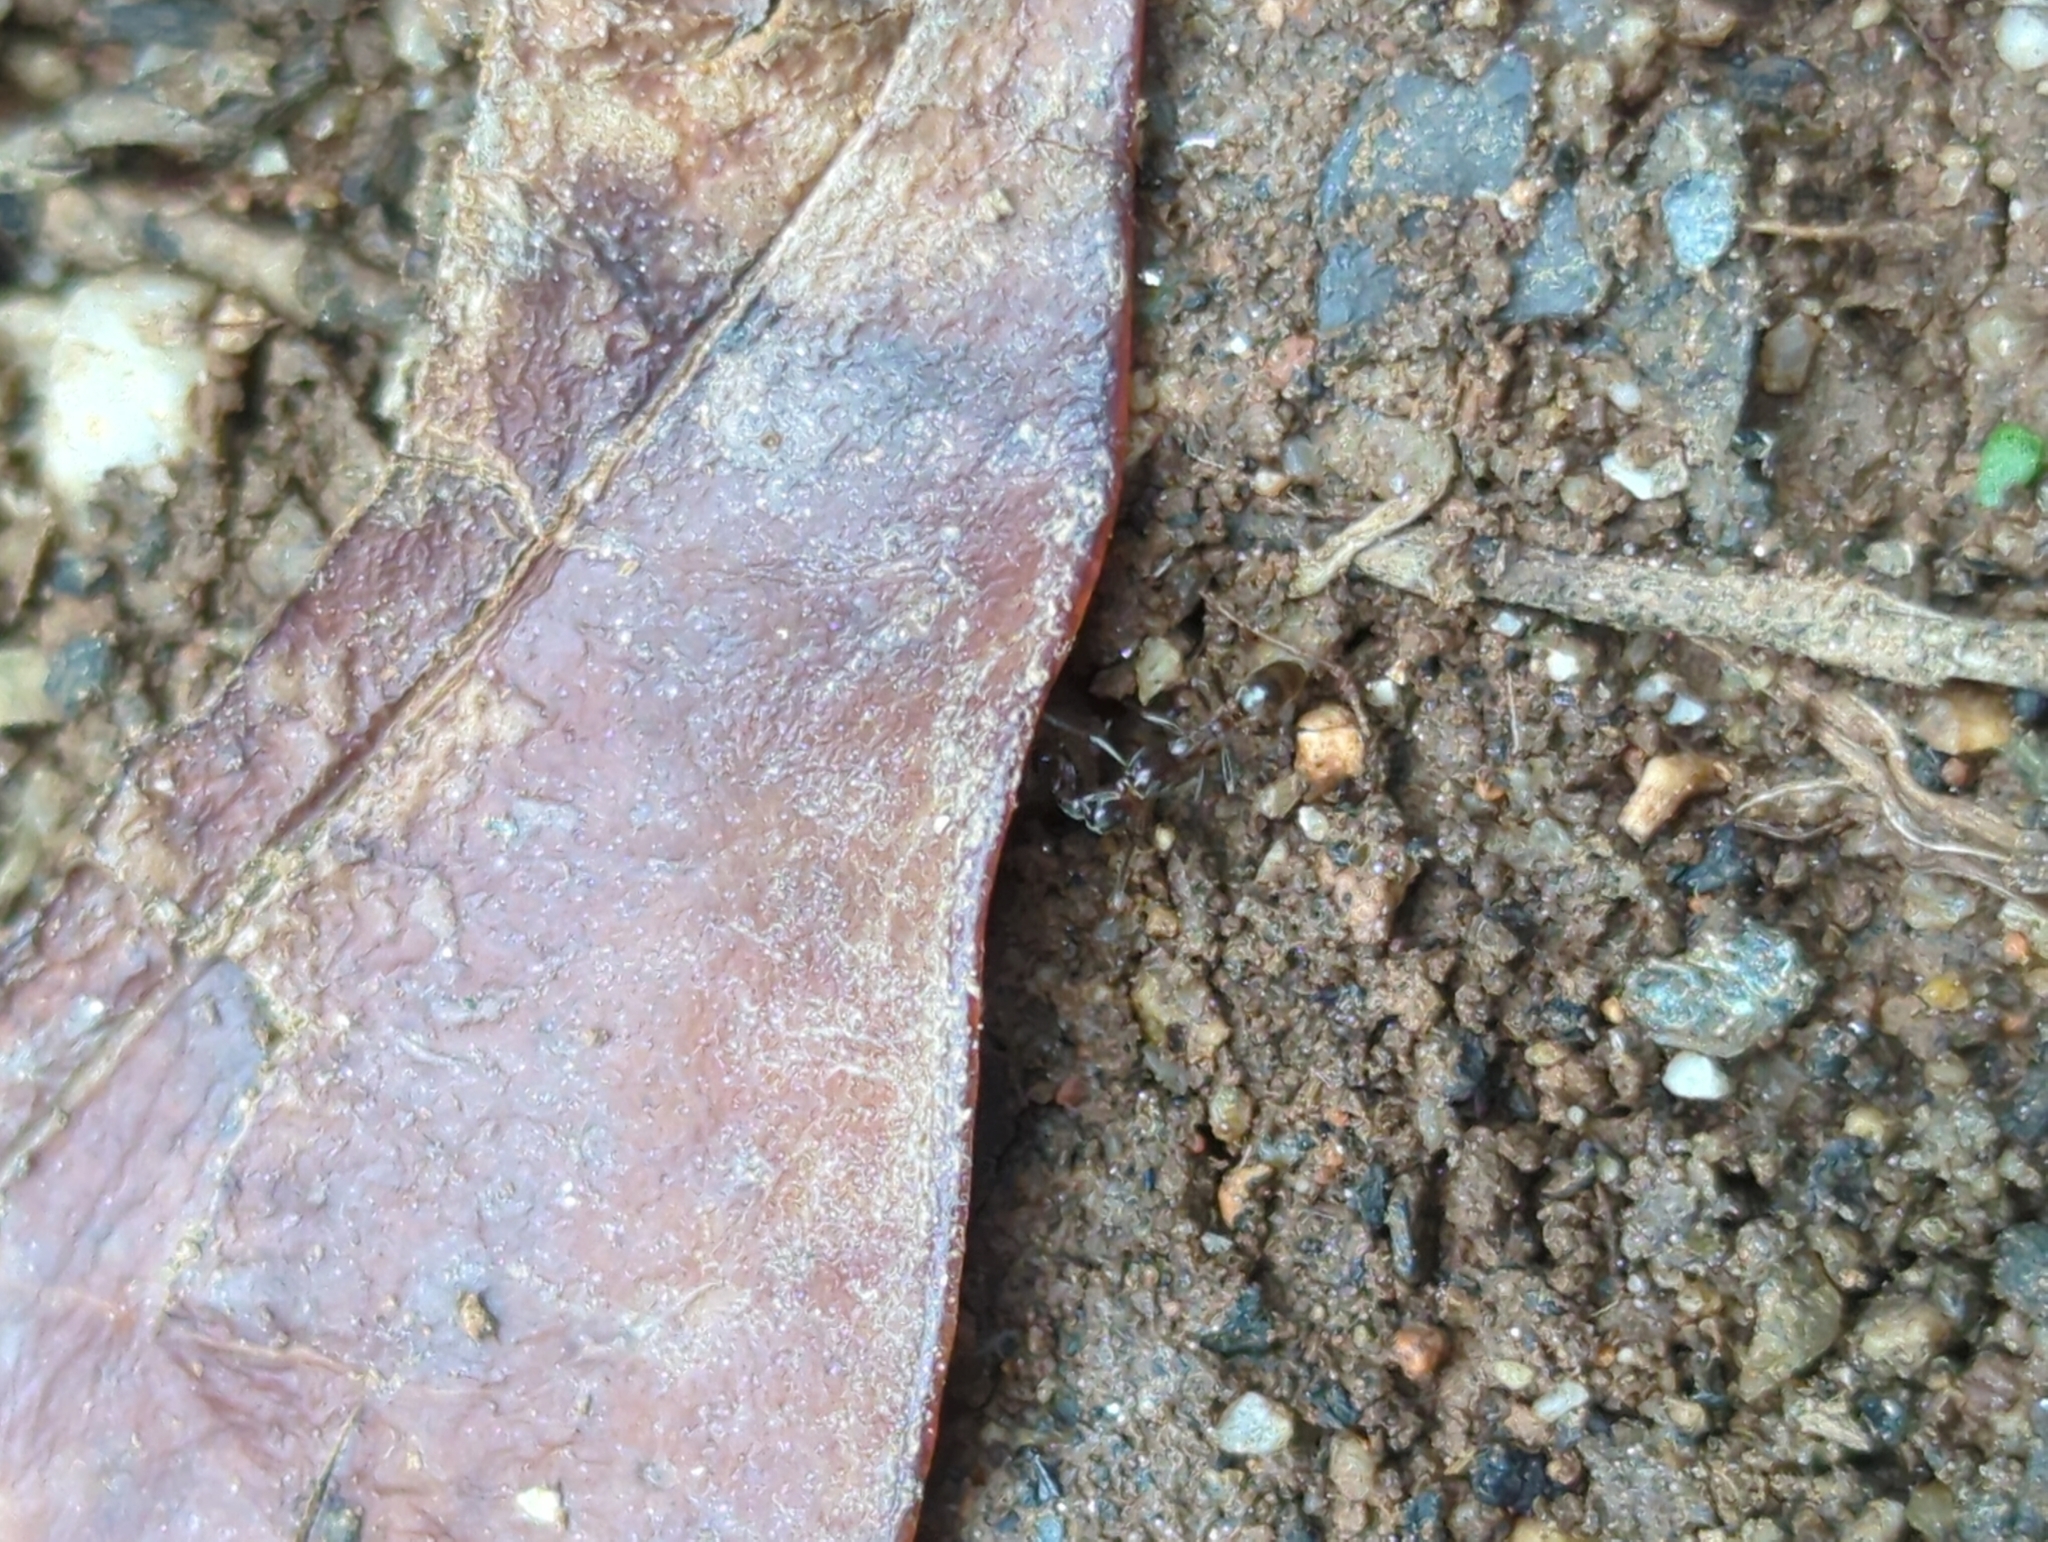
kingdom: Animalia
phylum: Arthropoda
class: Insecta
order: Hymenoptera
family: Formicidae
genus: Linepithema
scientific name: Linepithema humile
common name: Argentine ant
